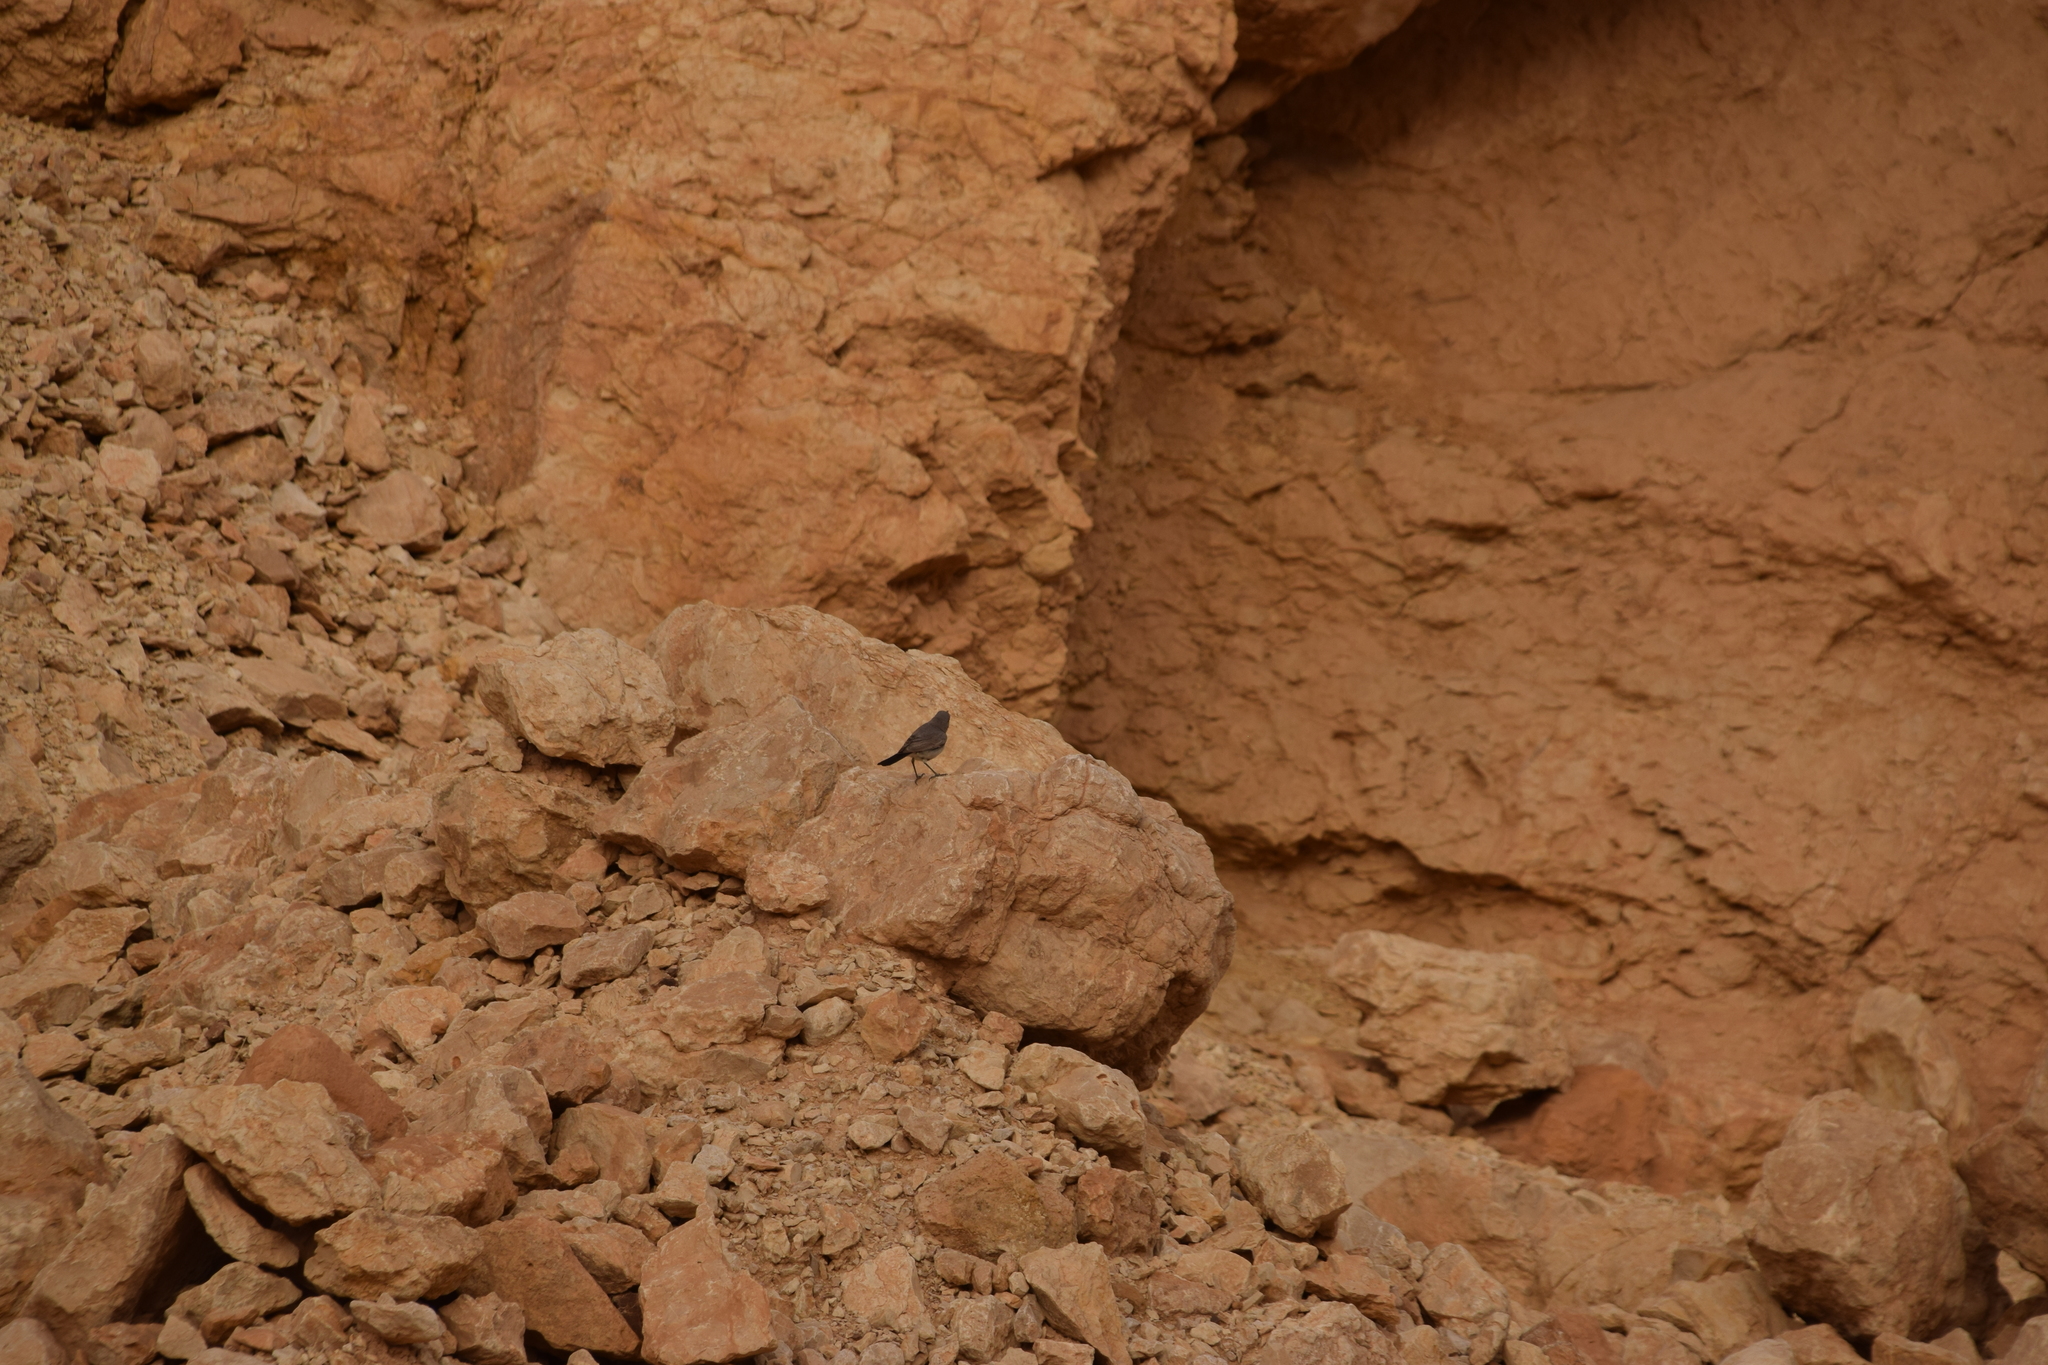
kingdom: Animalia
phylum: Chordata
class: Aves
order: Passeriformes
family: Muscicapidae
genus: Oenanthe
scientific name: Oenanthe melanura
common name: Blackstart
